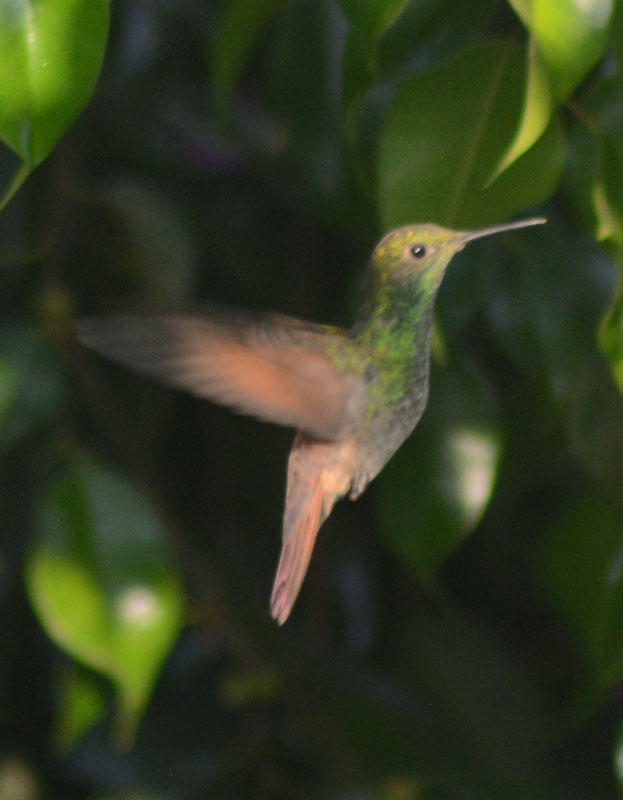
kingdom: Animalia
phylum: Chordata
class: Aves
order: Apodiformes
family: Trochilidae
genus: Saucerottia
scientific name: Saucerottia beryllina
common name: Berylline hummingbird
